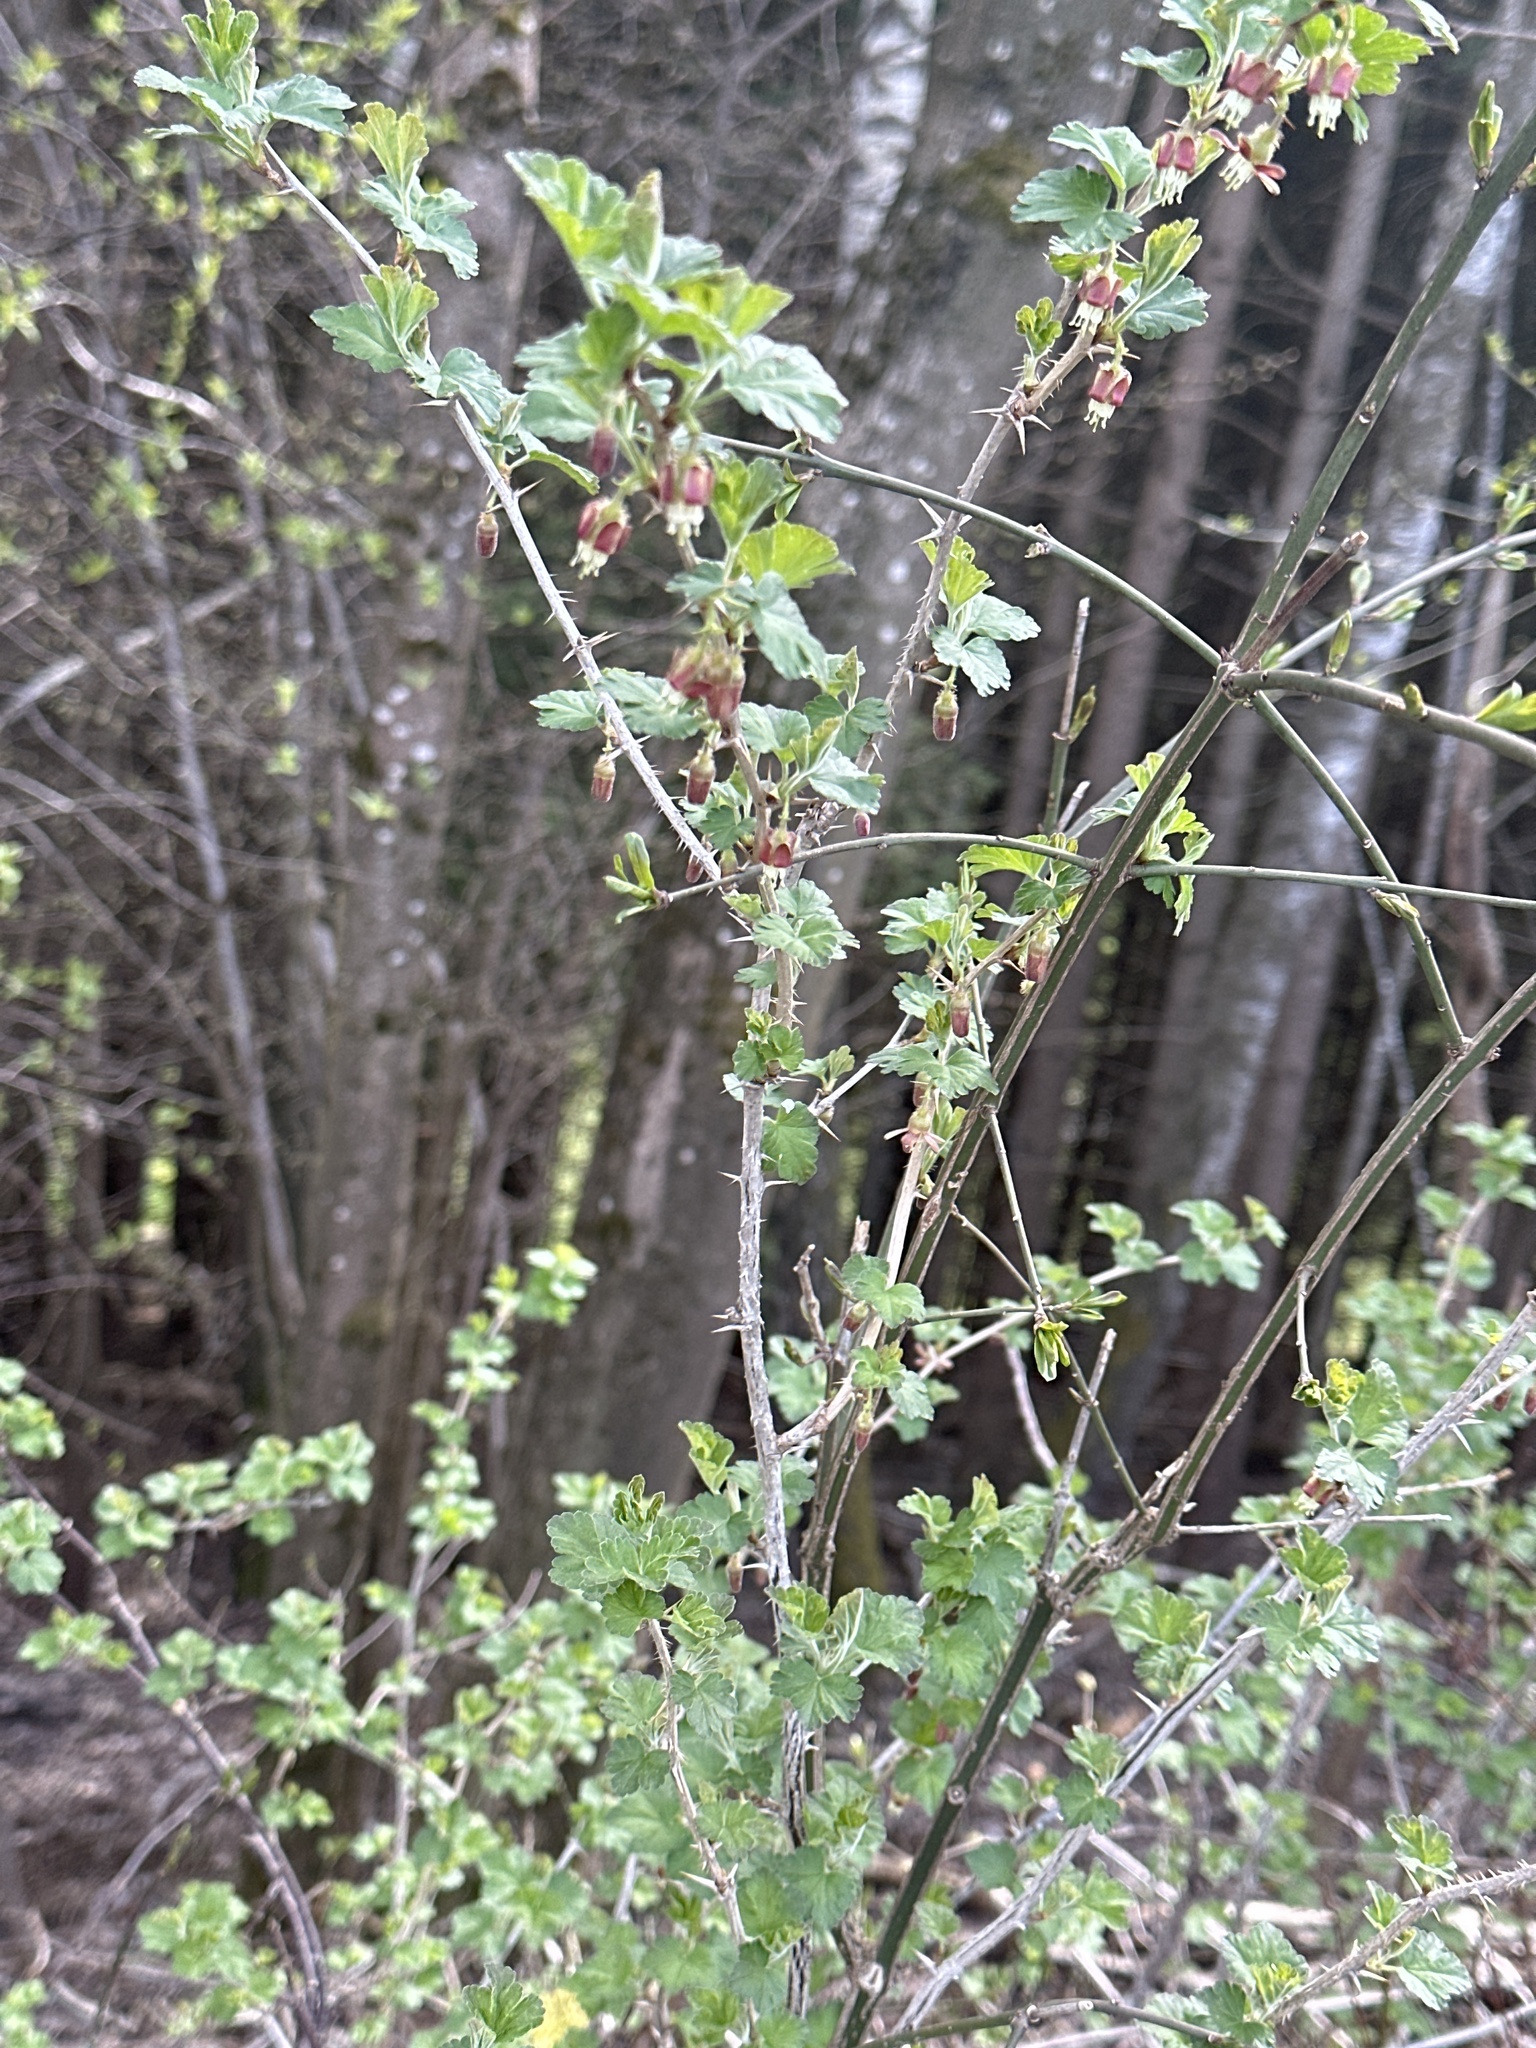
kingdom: Plantae
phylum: Tracheophyta
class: Magnoliopsida
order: Saxifragales
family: Grossulariaceae
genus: Ribes
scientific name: Ribes uva-crispa
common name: Gooseberry
